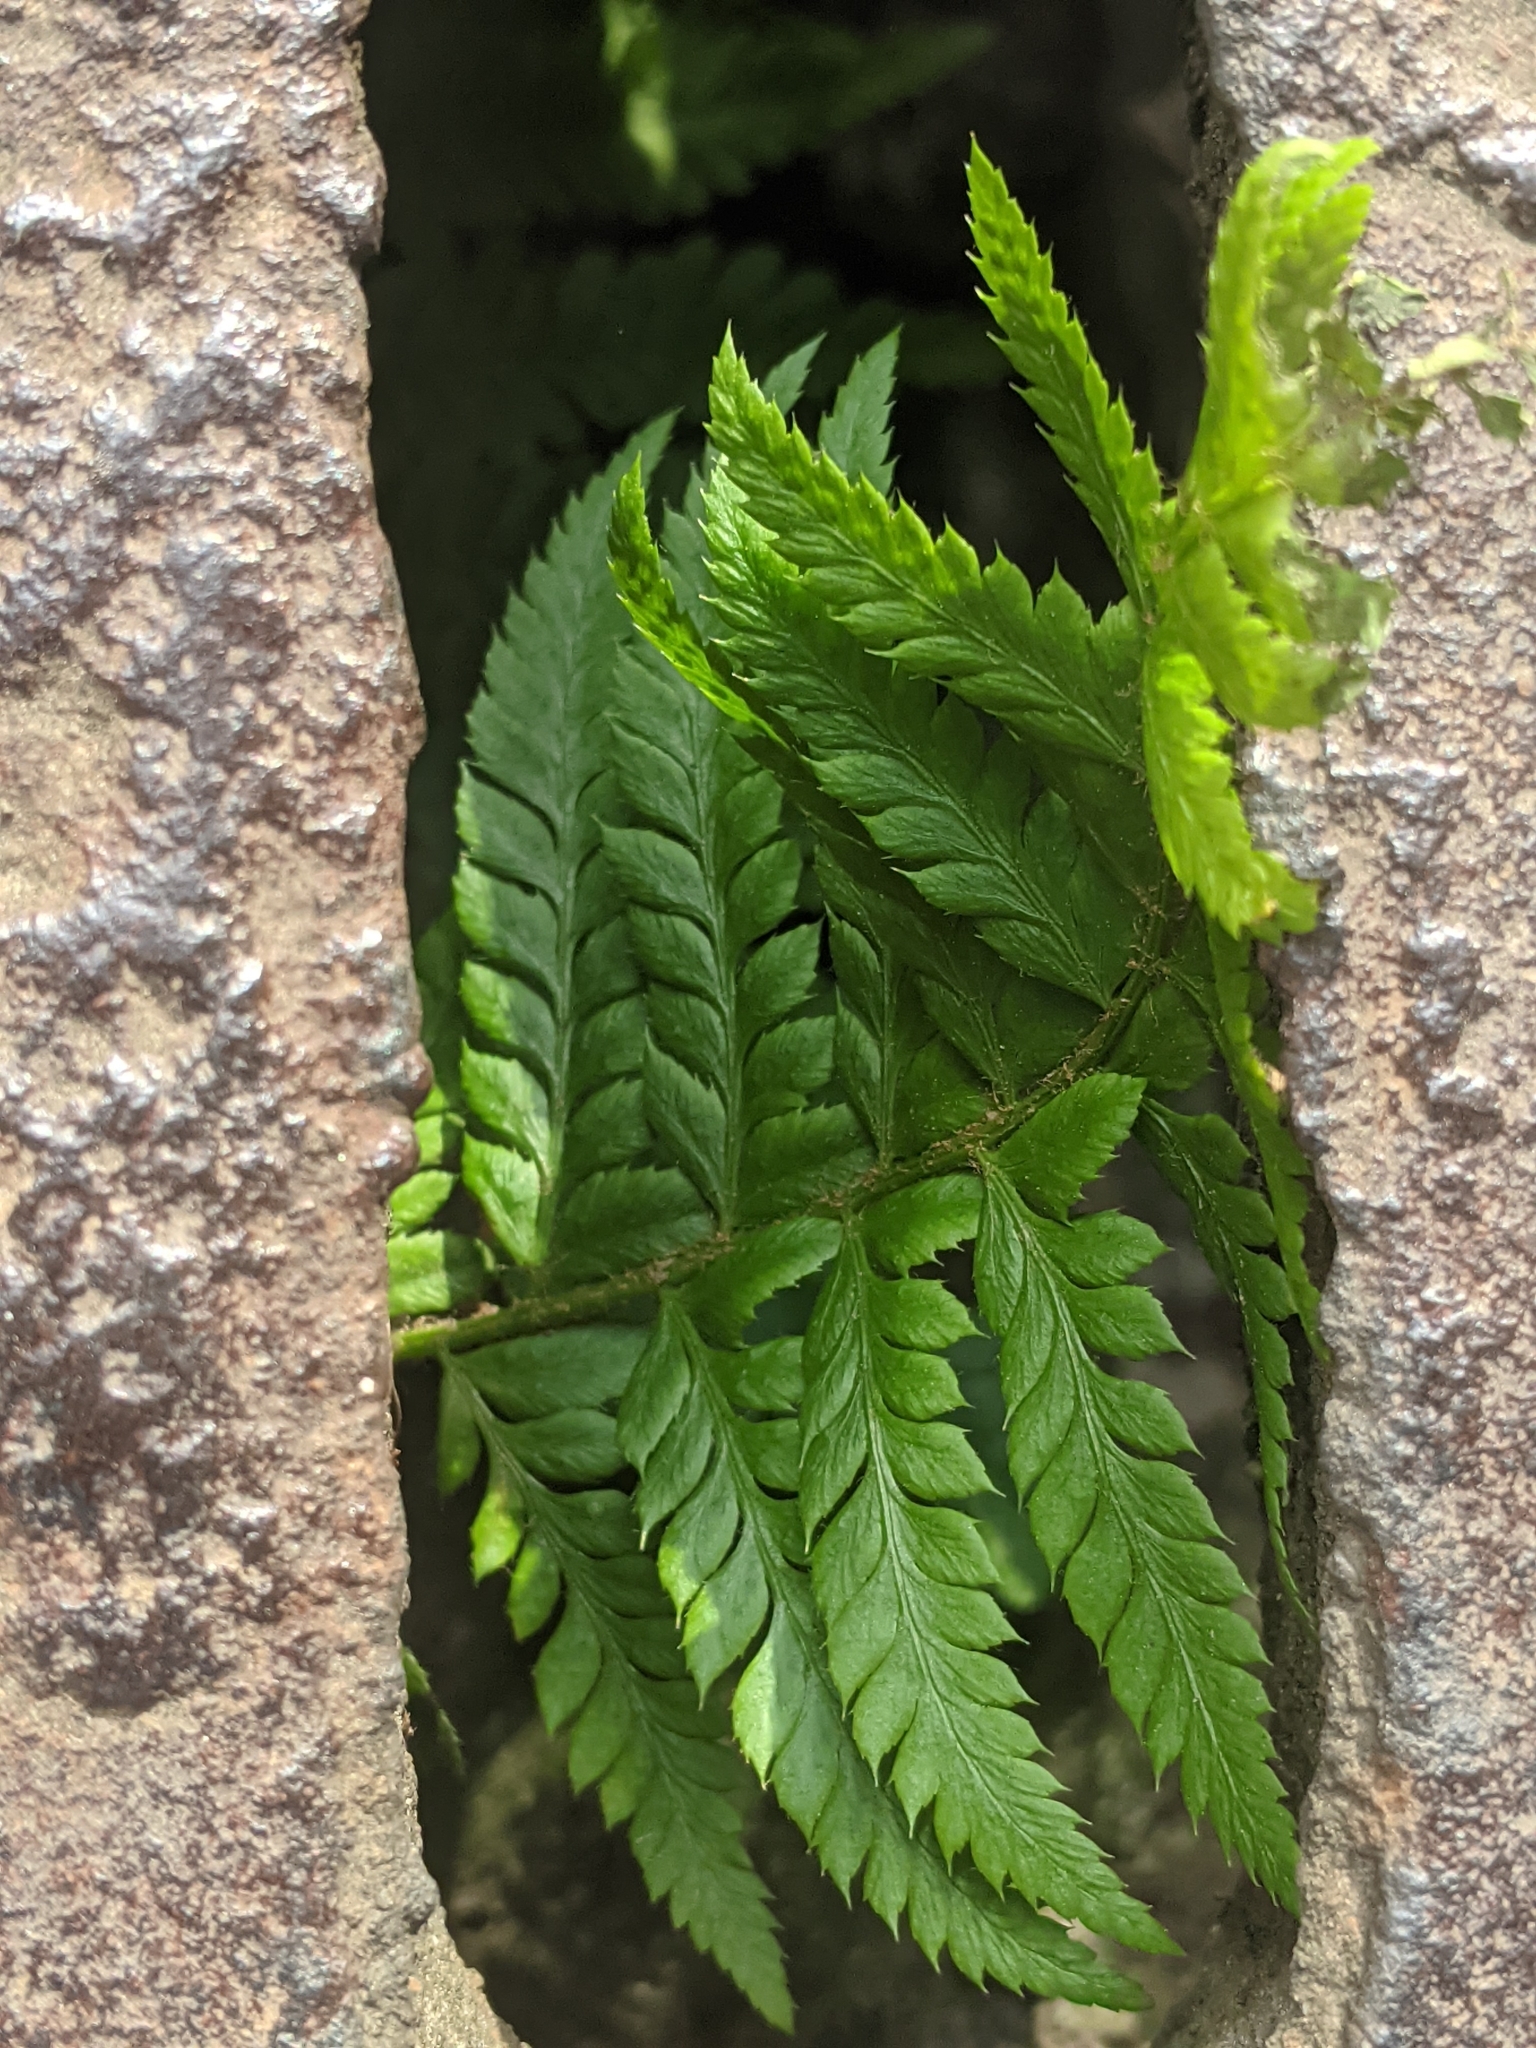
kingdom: Plantae
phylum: Tracheophyta
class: Polypodiopsida
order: Polypodiales
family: Dryopteridaceae
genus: Polystichum
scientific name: Polystichum aculeatum
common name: Hard shield-fern
